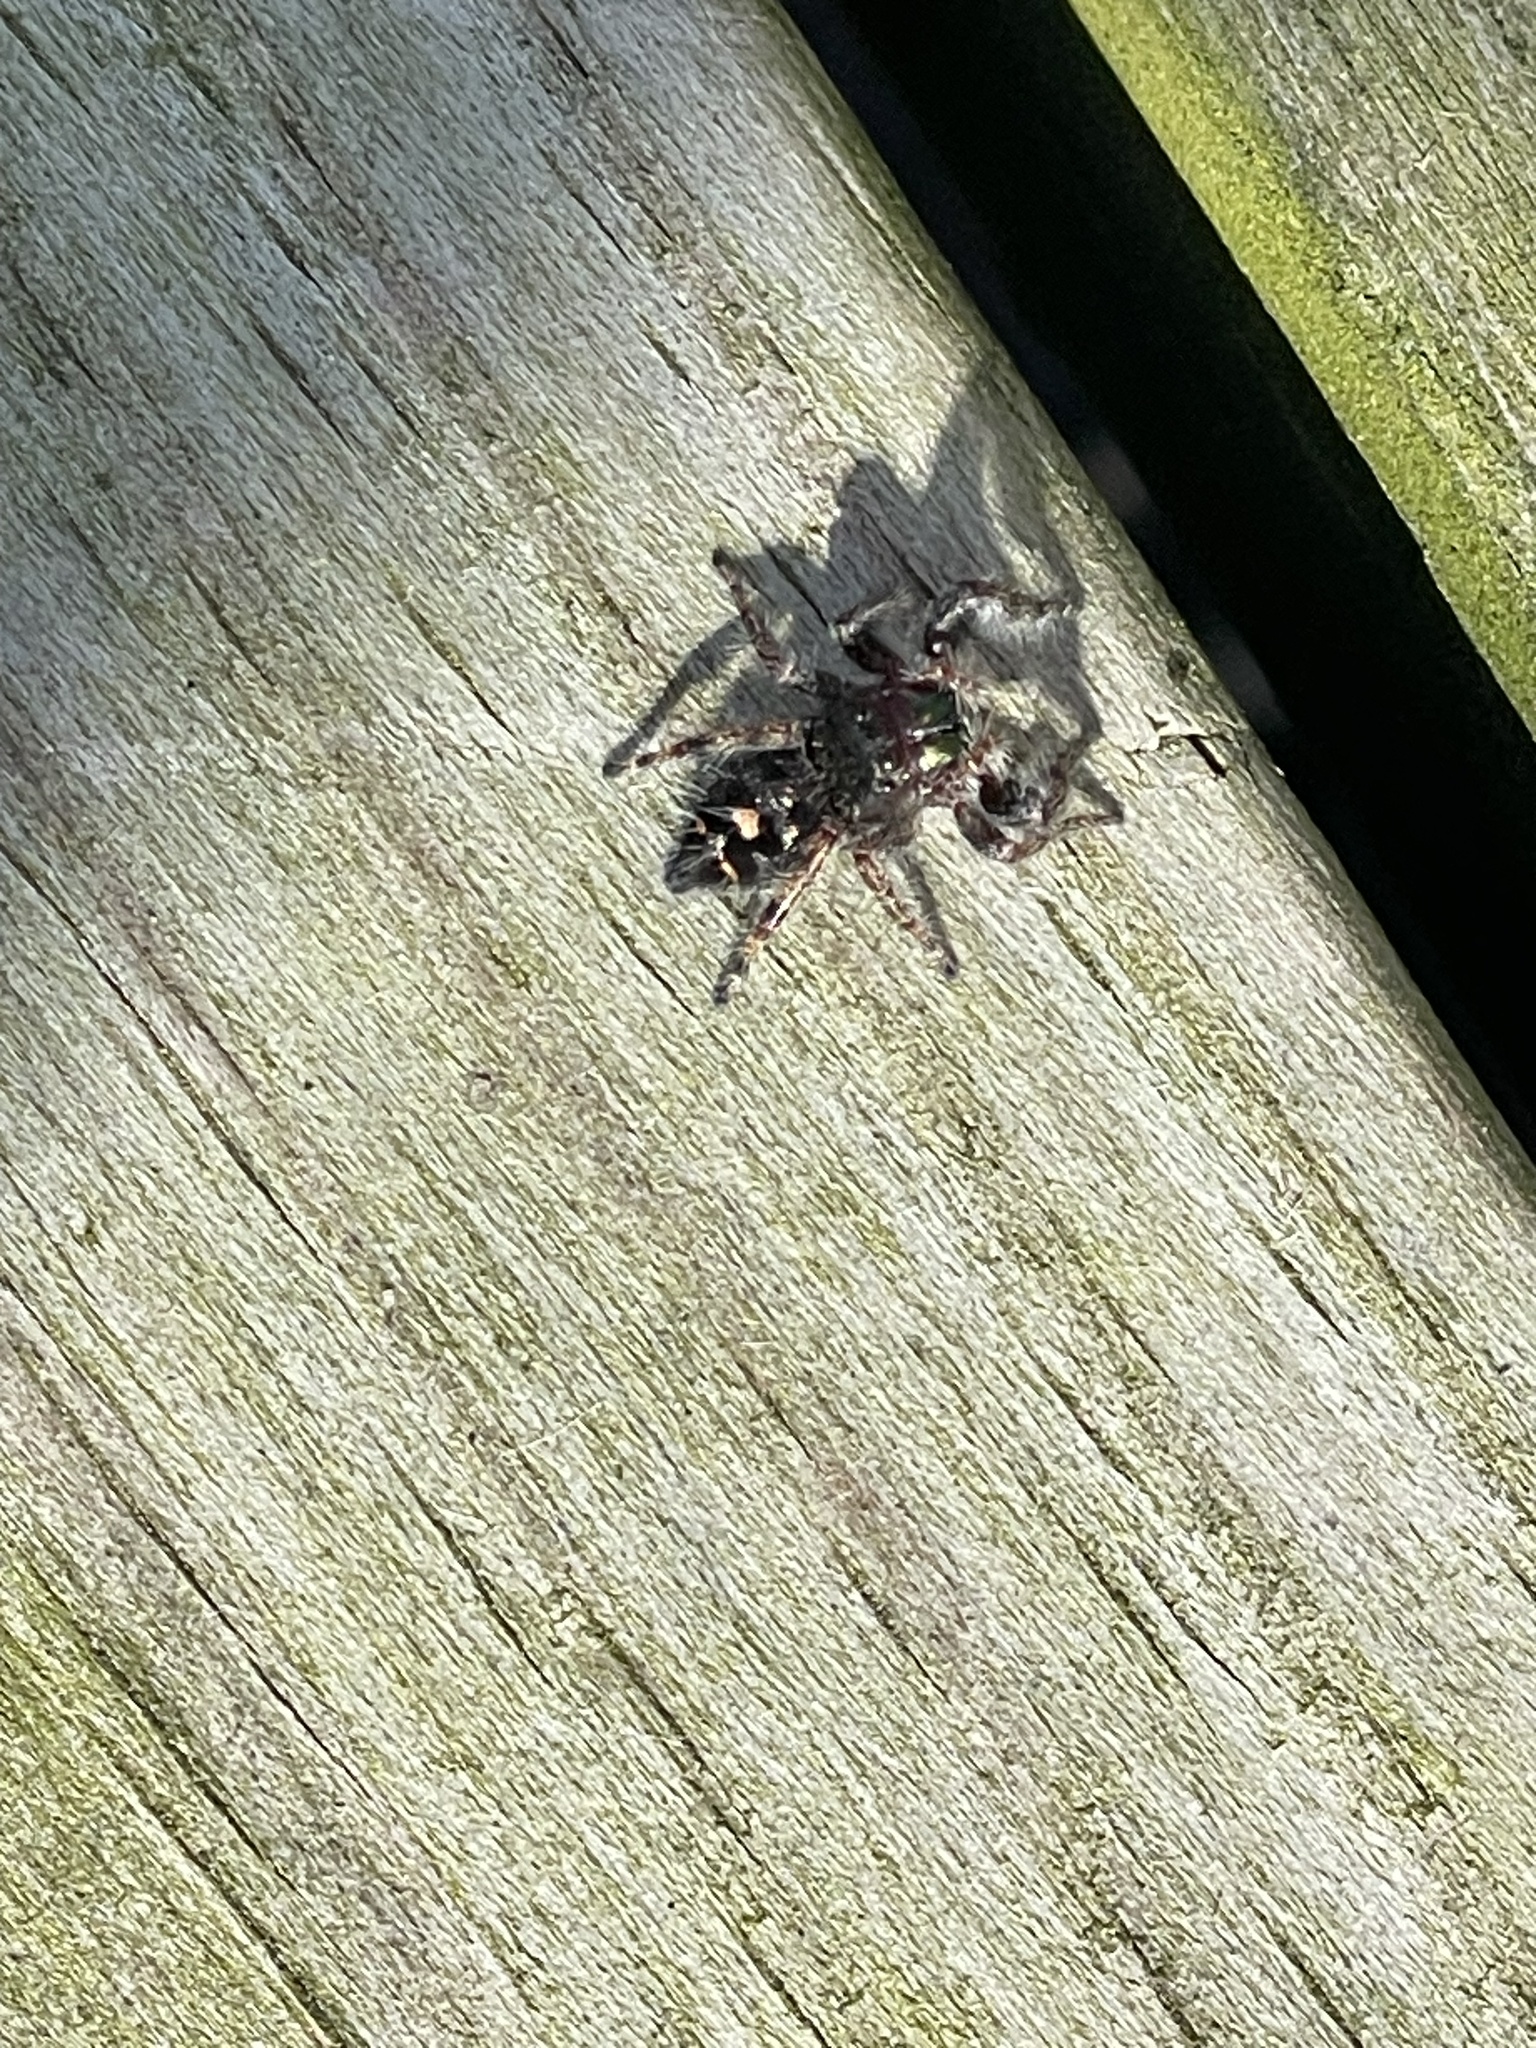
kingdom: Animalia
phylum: Arthropoda
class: Arachnida
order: Araneae
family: Salticidae
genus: Phidippus
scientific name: Phidippus audax
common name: Bold jumper
